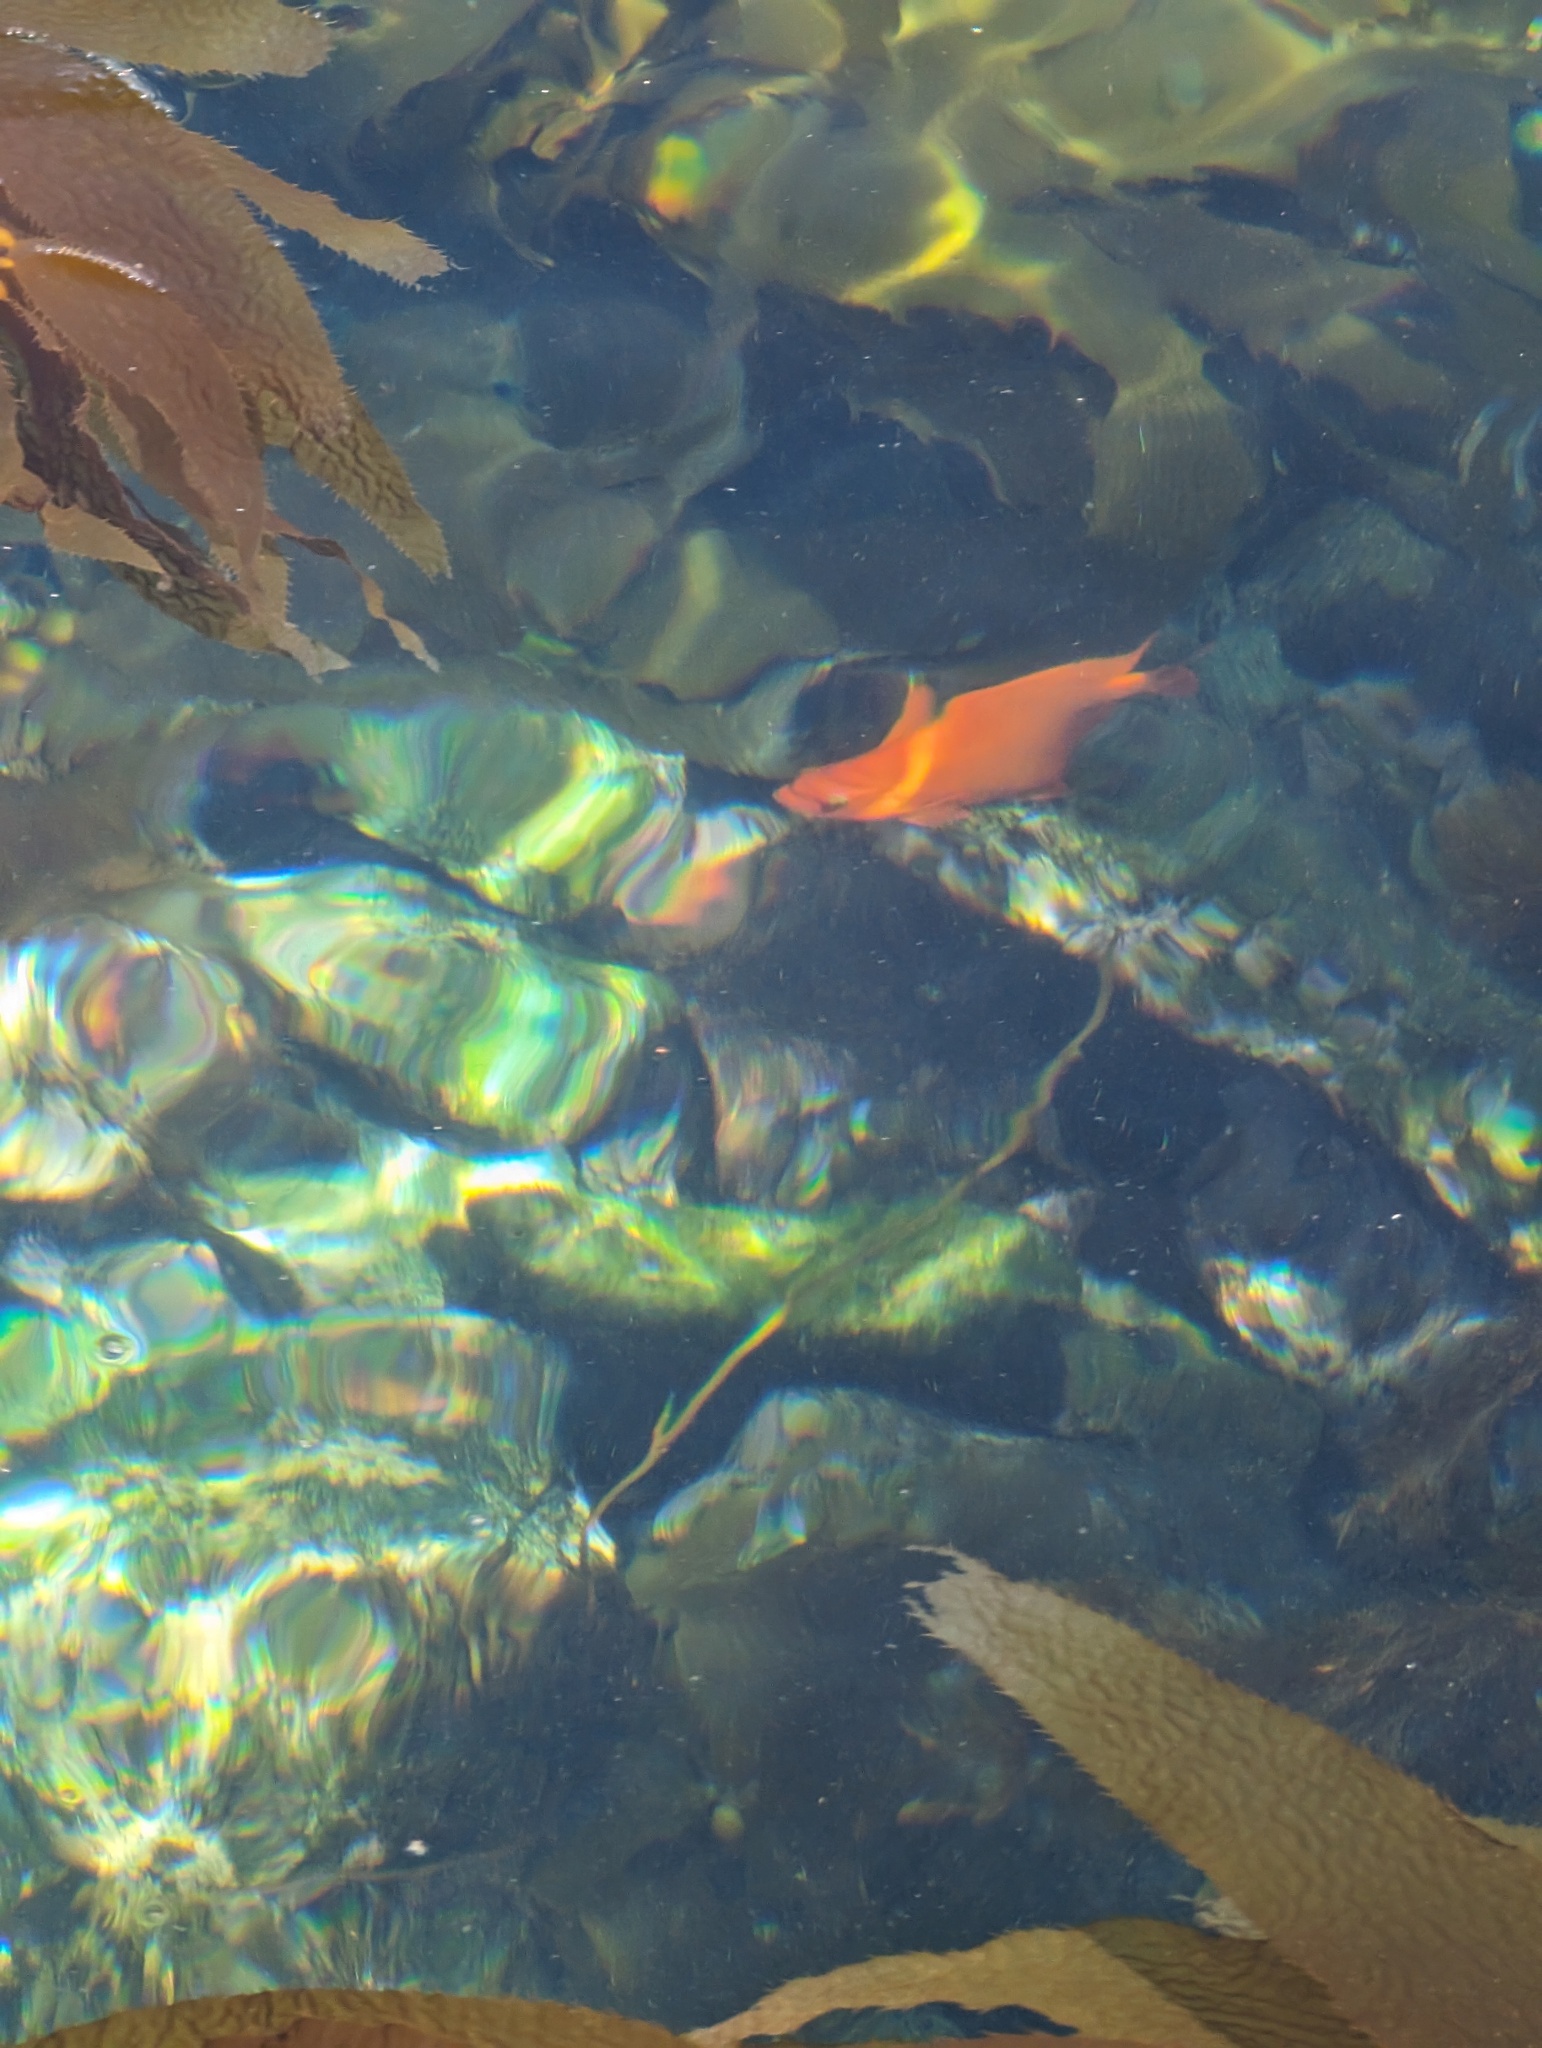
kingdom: Animalia
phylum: Chordata
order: Perciformes
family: Pomacentridae
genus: Hypsypops
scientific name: Hypsypops rubicundus
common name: Garibaldi
